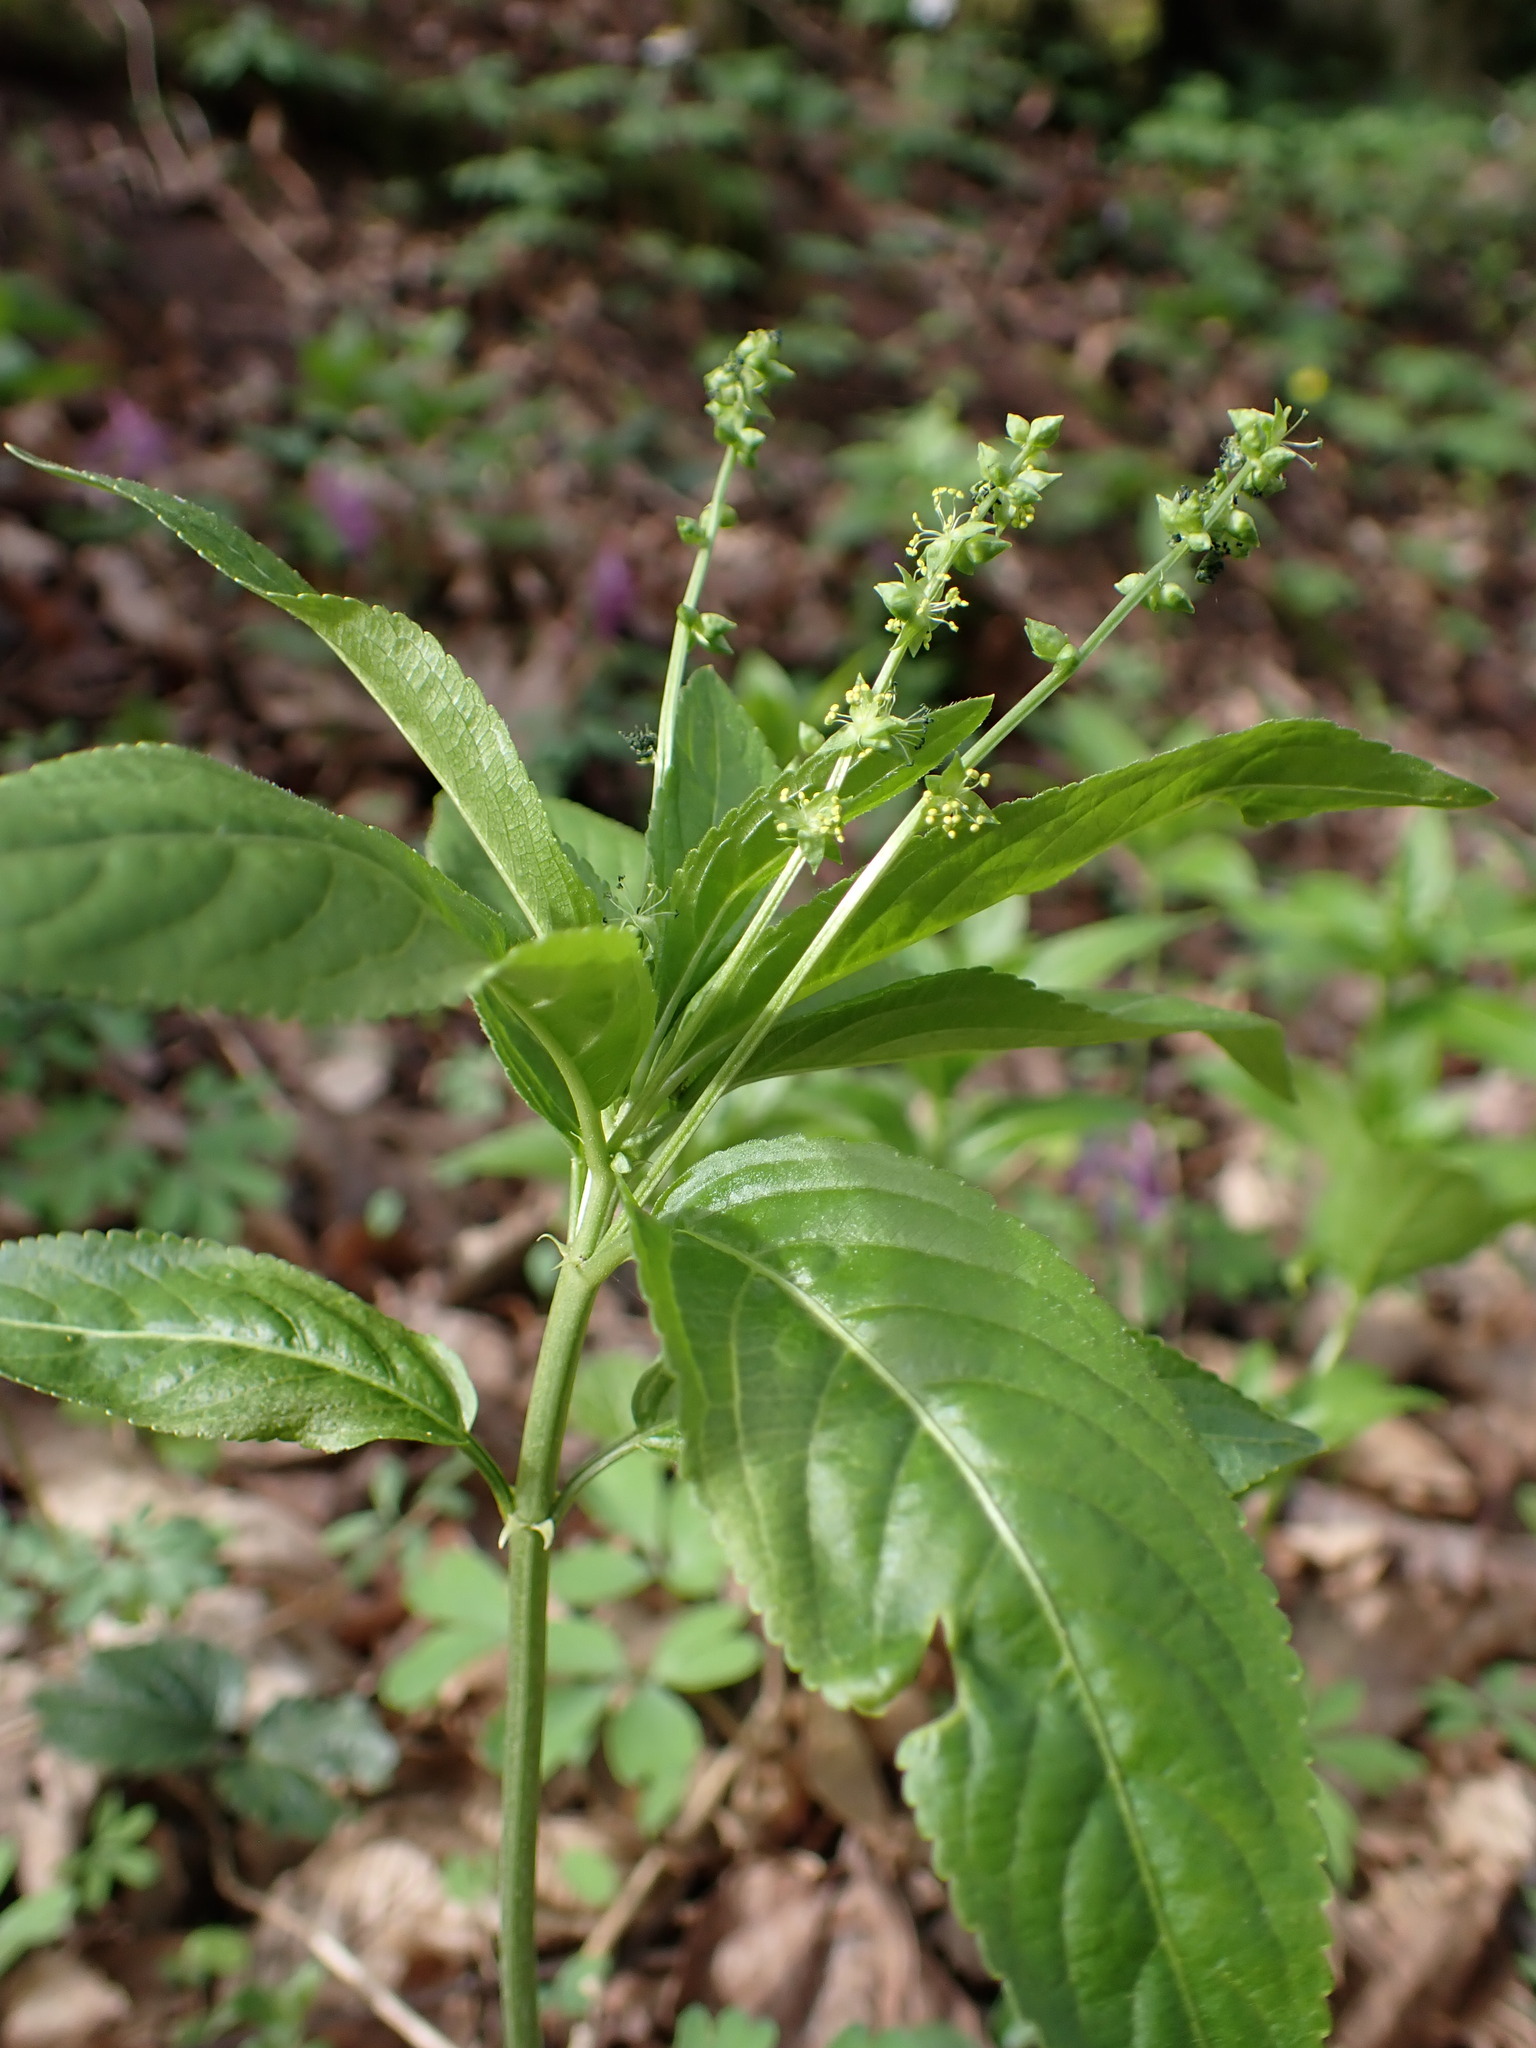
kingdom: Plantae
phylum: Tracheophyta
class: Magnoliopsida
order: Malpighiales
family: Euphorbiaceae
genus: Mercurialis
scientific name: Mercurialis perennis
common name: Dog mercury
